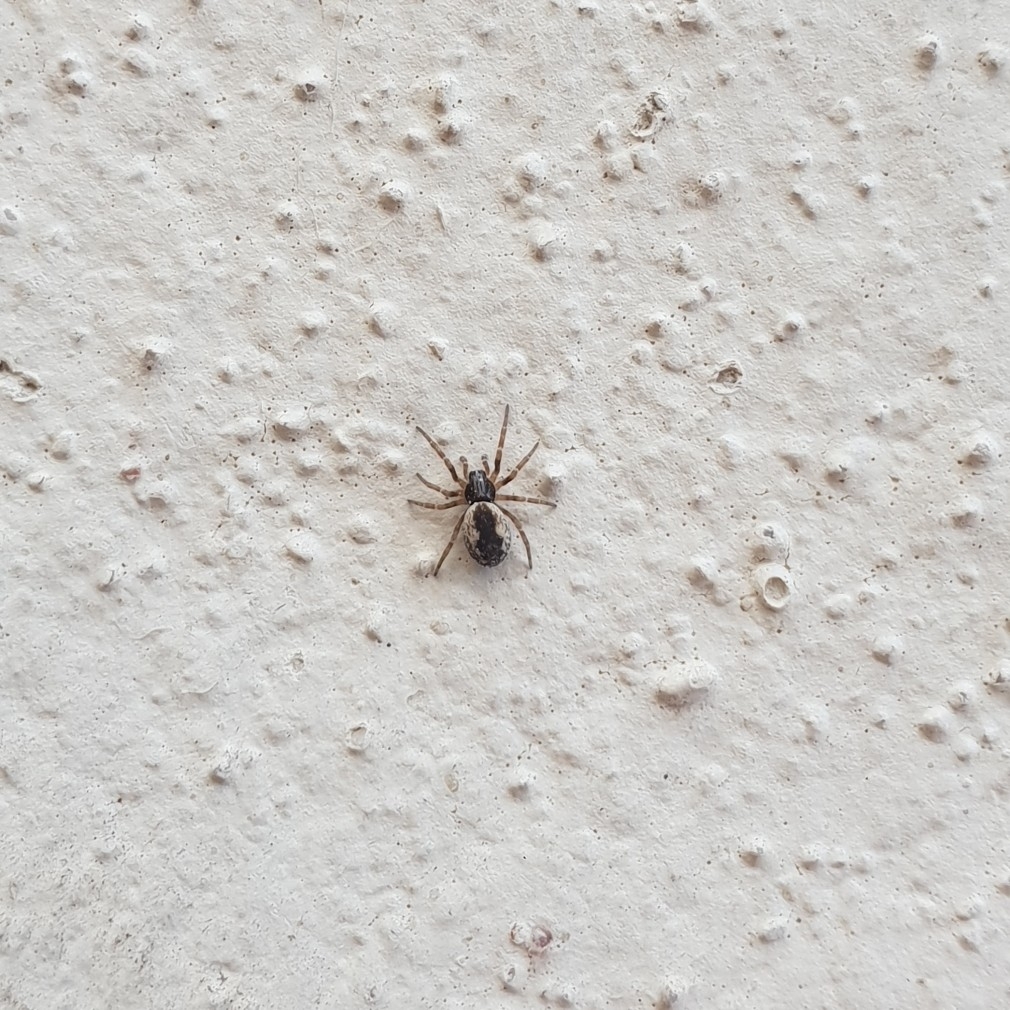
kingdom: Animalia
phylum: Arthropoda
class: Arachnida
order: Araneae
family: Dictynidae
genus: Brigittea
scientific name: Brigittea civica
